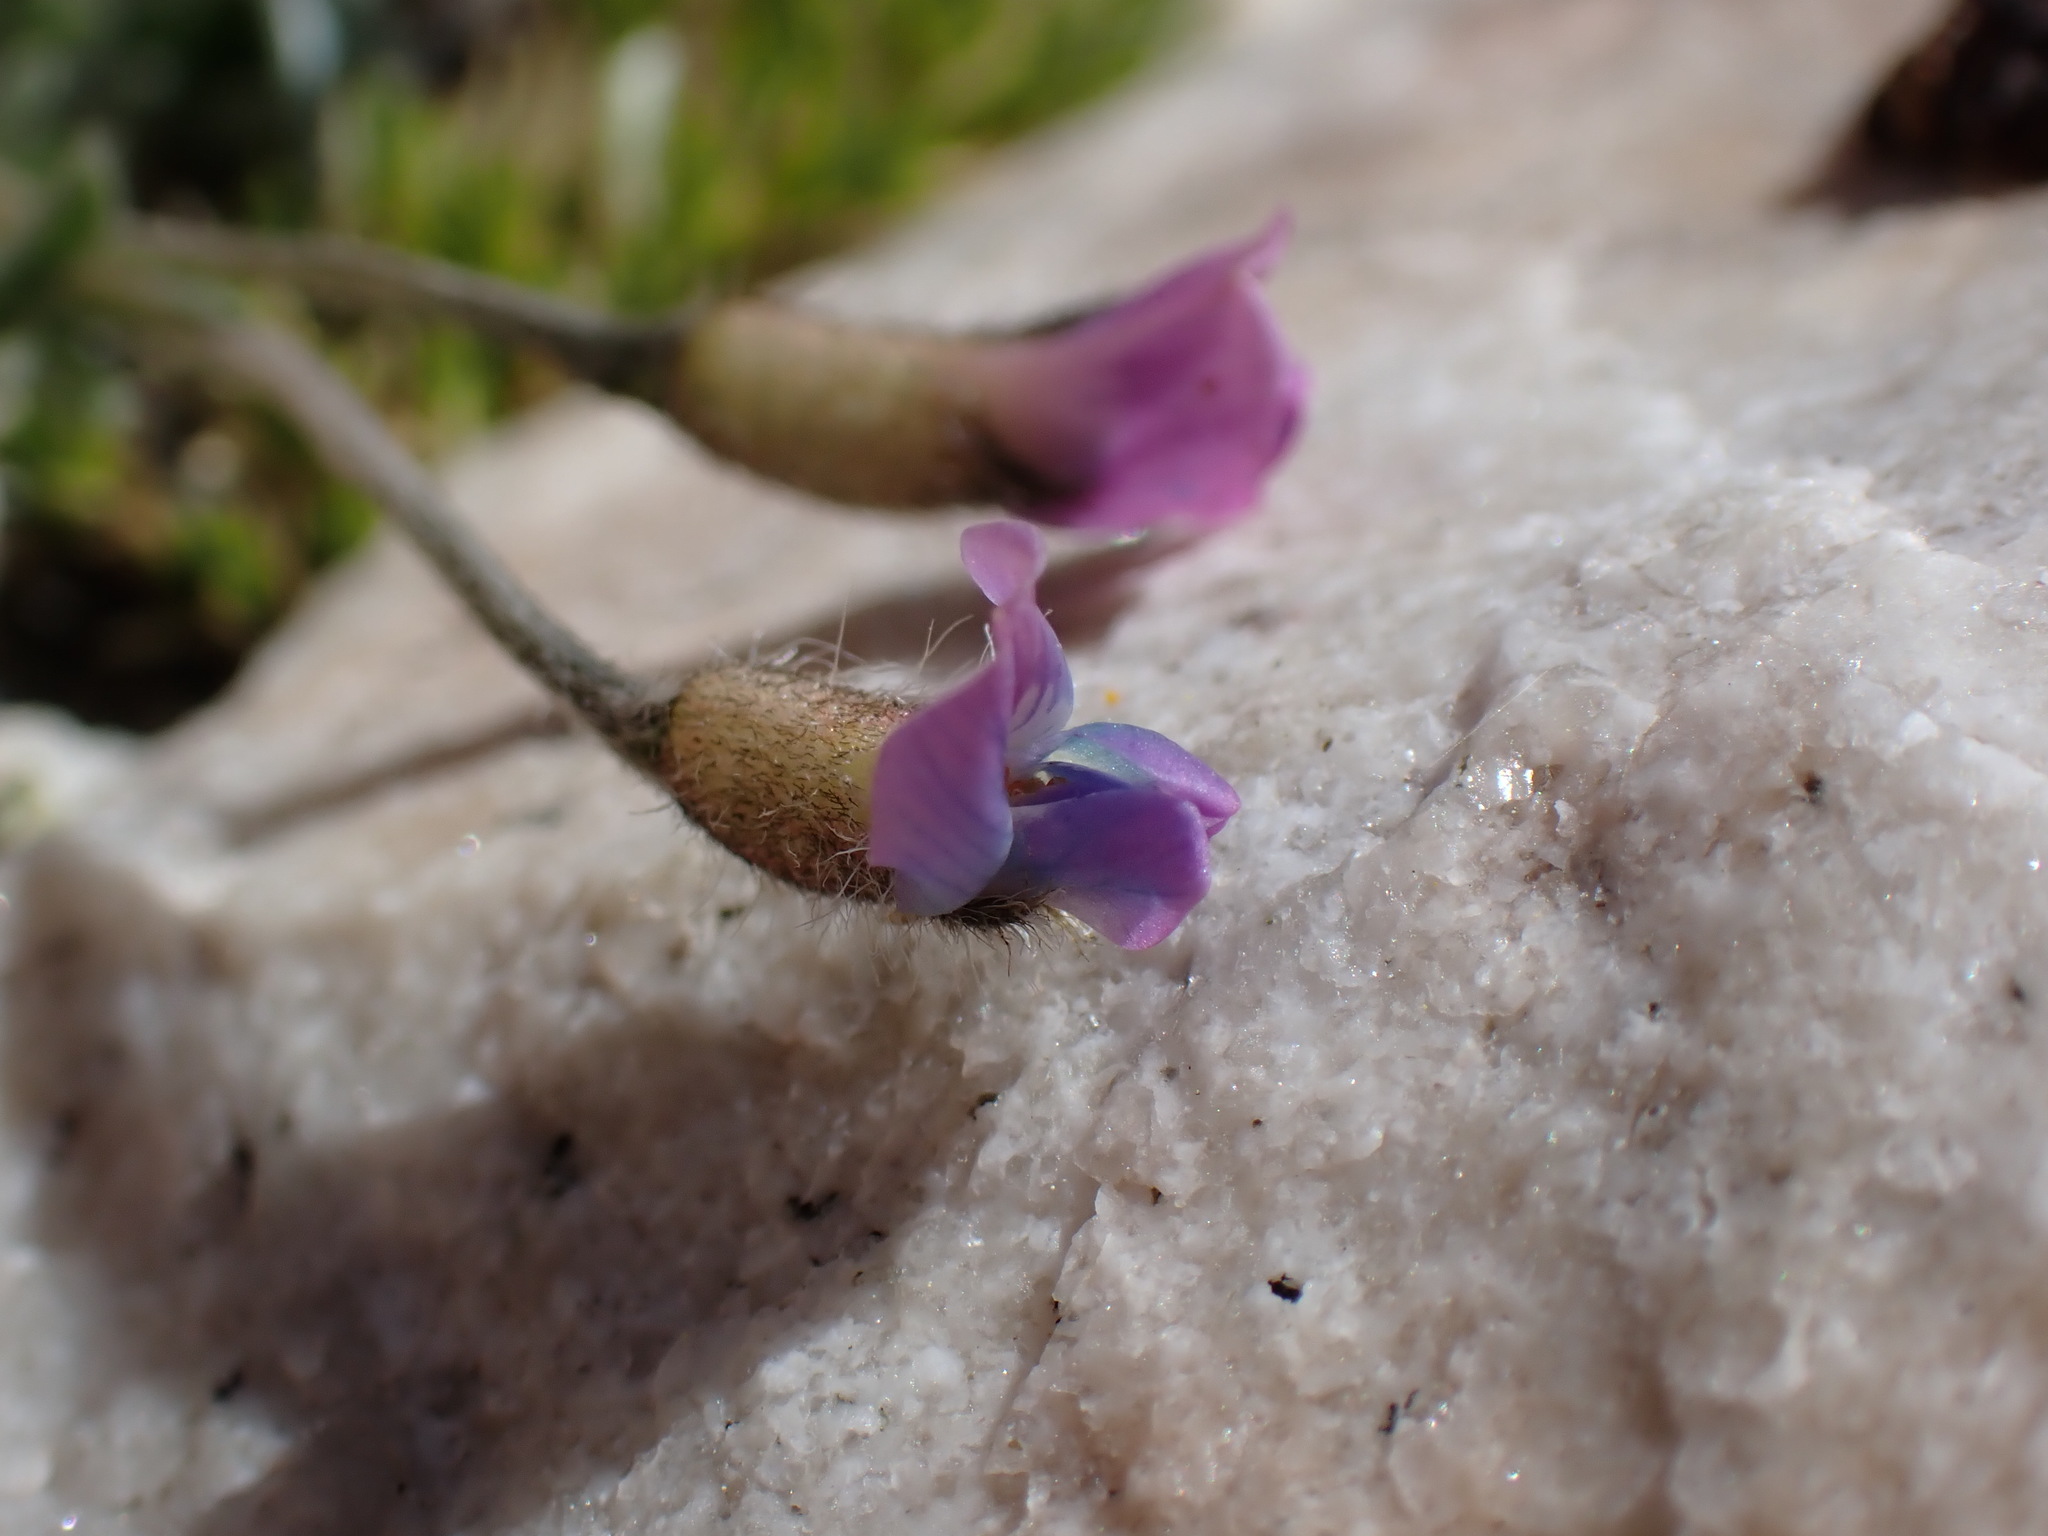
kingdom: Plantae
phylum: Tracheophyta
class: Magnoliopsida
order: Fabales
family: Fabaceae
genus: Oxytropis
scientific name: Oxytropis parryi
